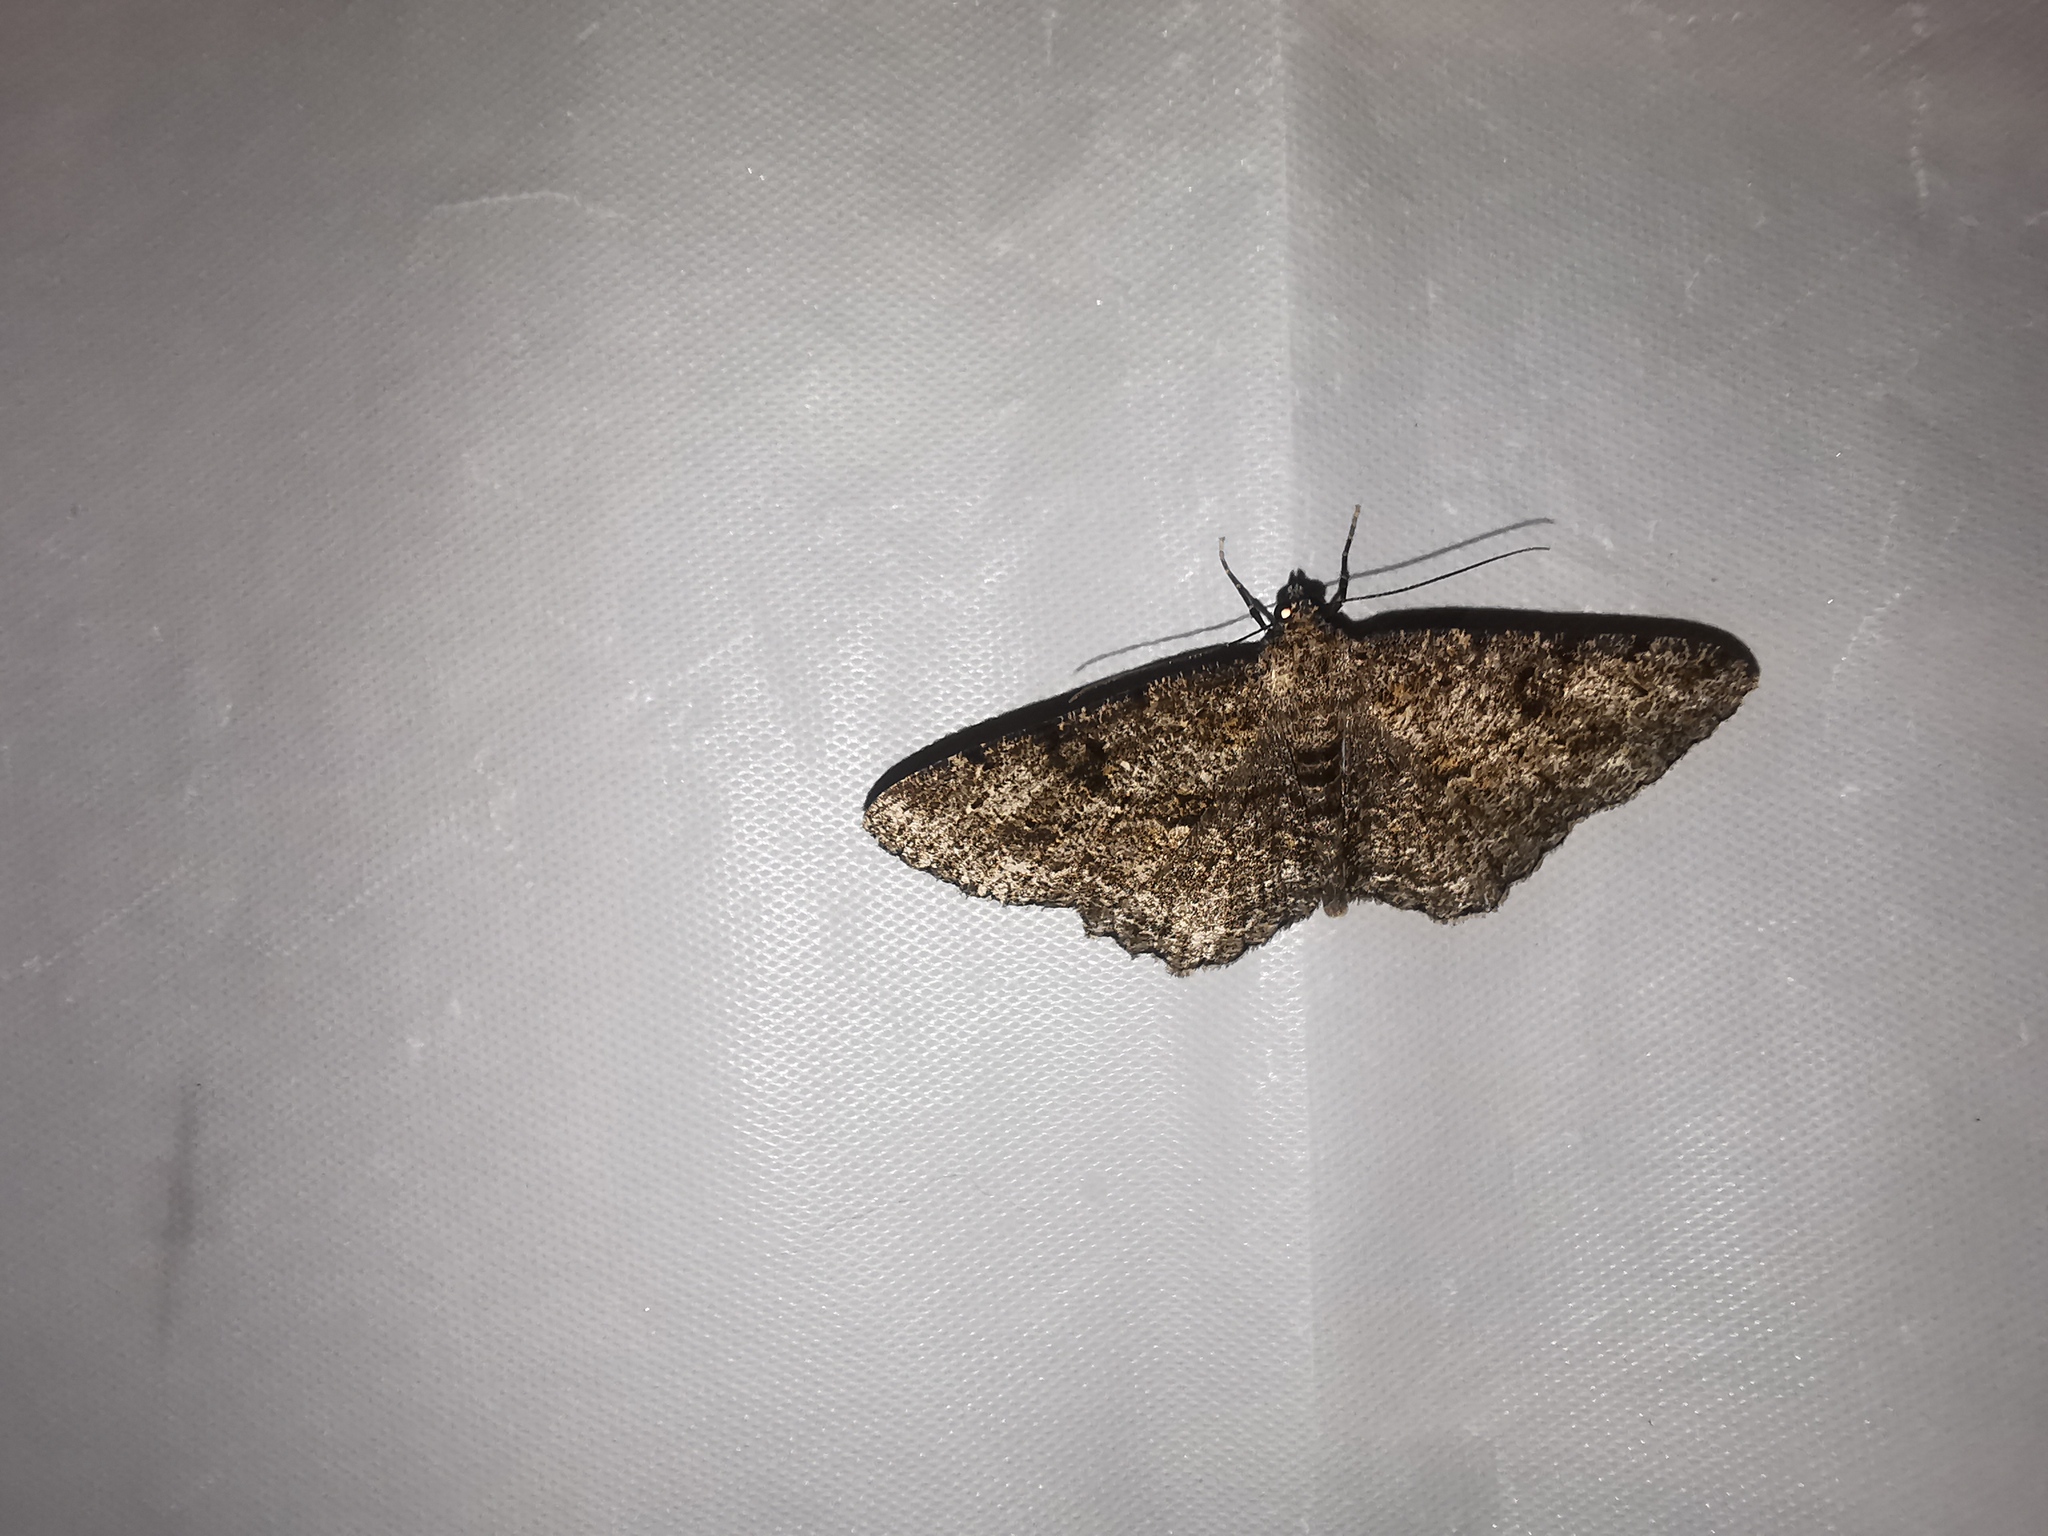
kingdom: Animalia
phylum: Arthropoda
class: Insecta
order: Lepidoptera
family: Geometridae
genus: Peribatodes
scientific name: Peribatodes rhomboidaria
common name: Willow beauty
